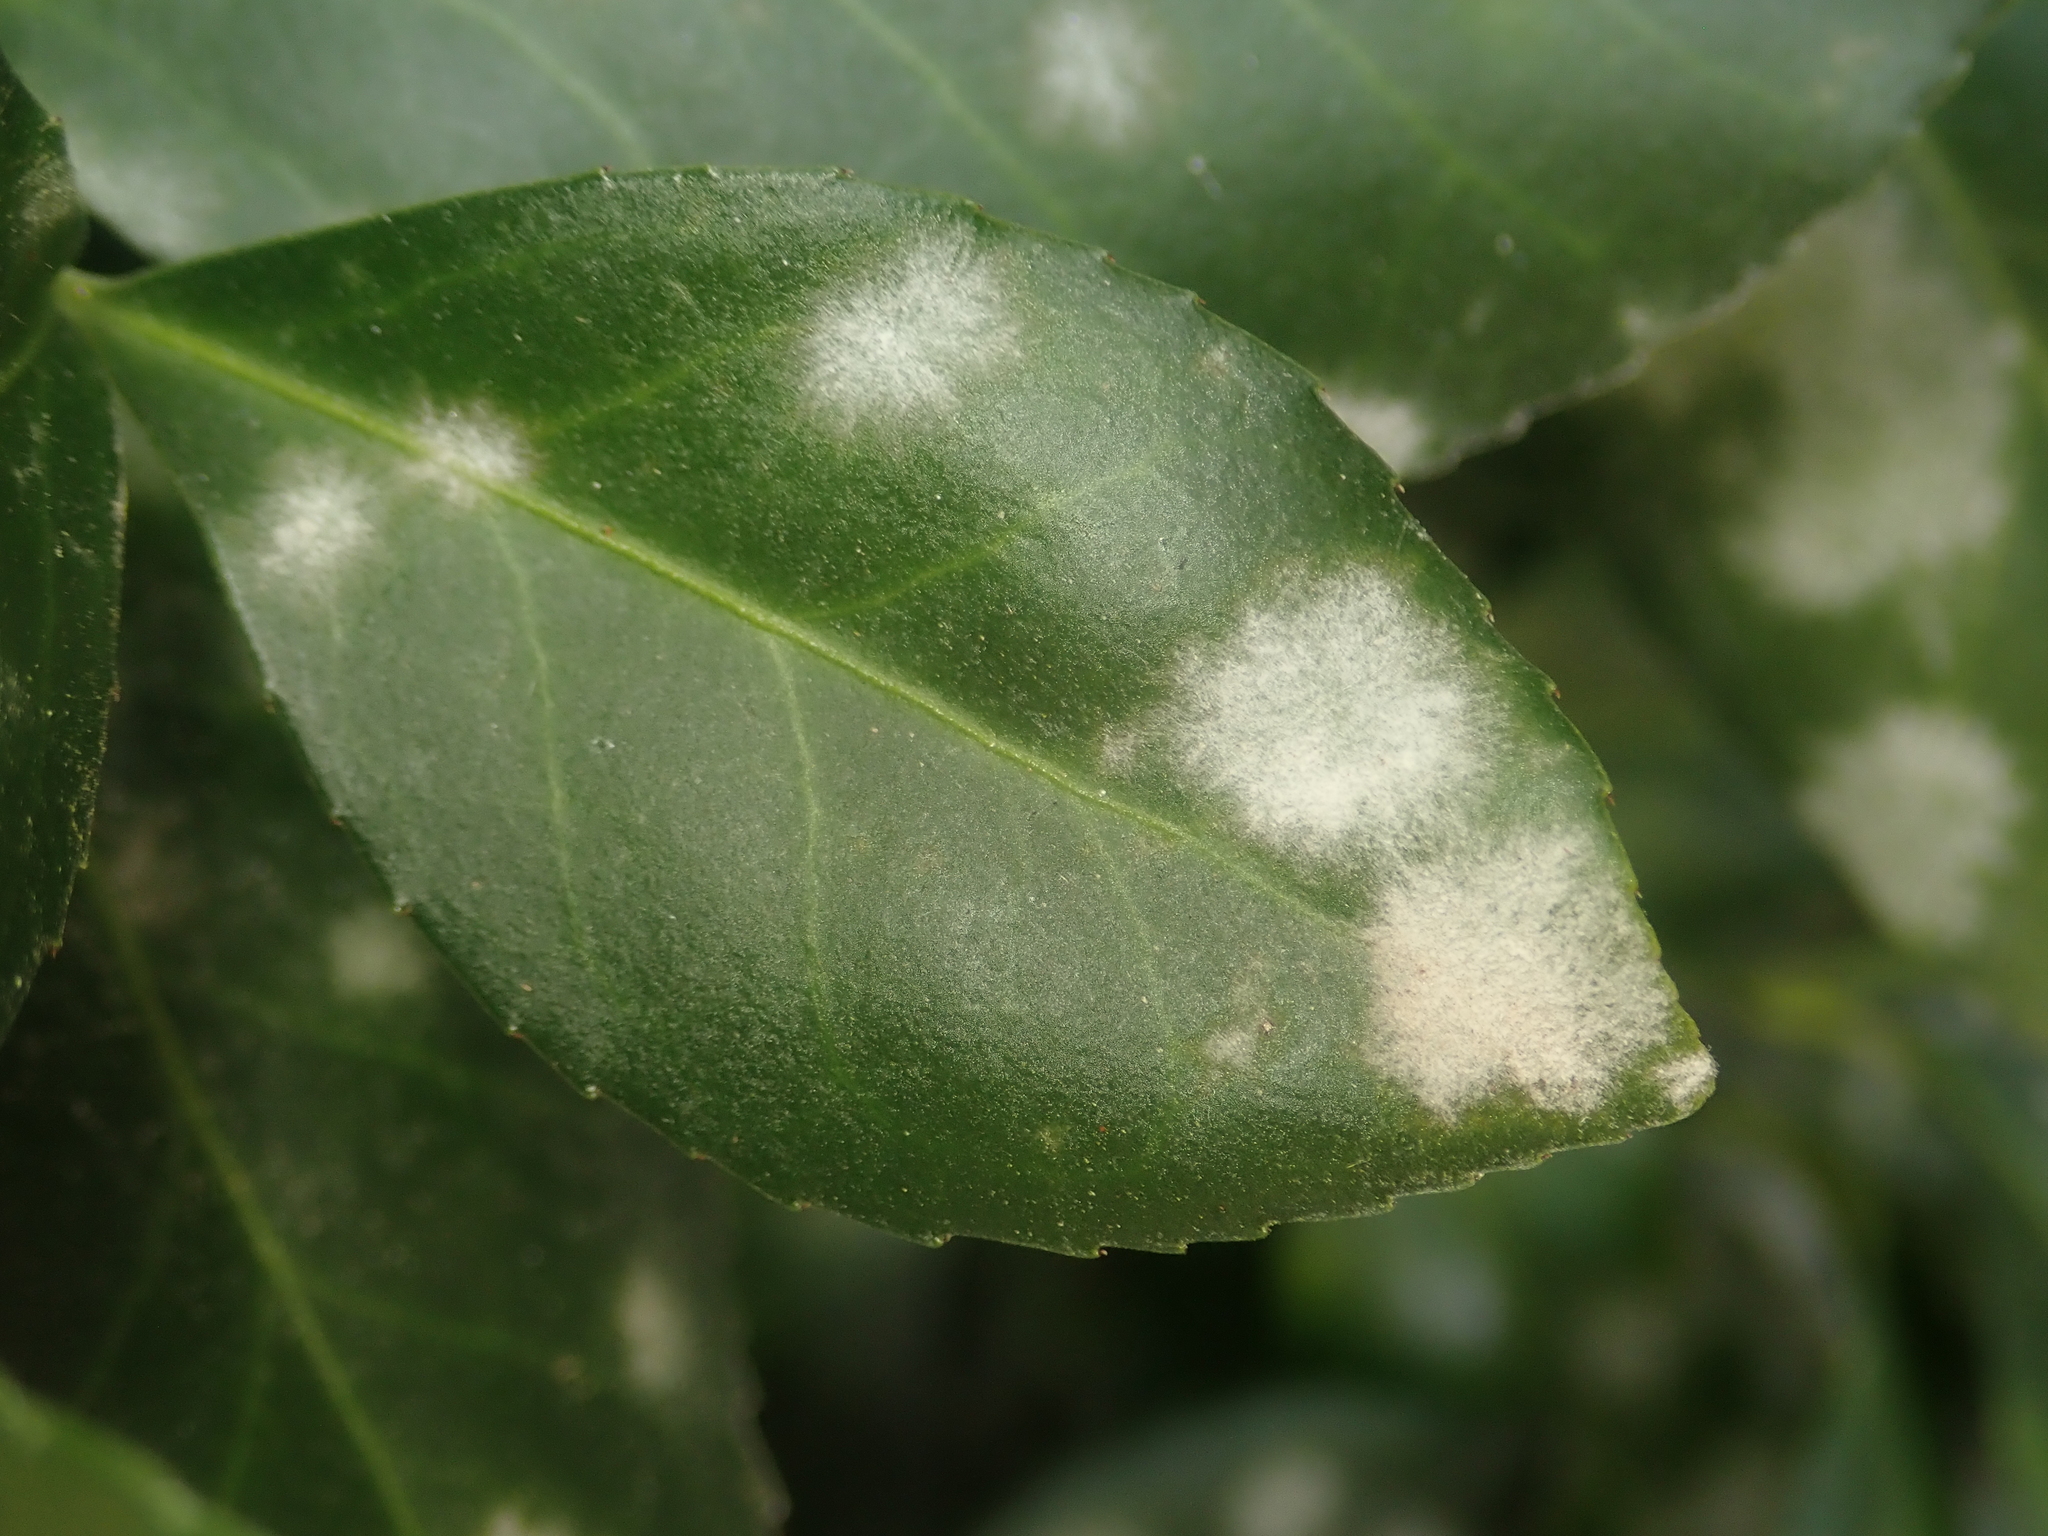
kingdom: Fungi
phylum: Ascomycota
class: Leotiomycetes
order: Helotiales
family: Erysiphaceae
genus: Erysiphe
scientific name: Erysiphe euonymicola
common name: Spindletree mildew
